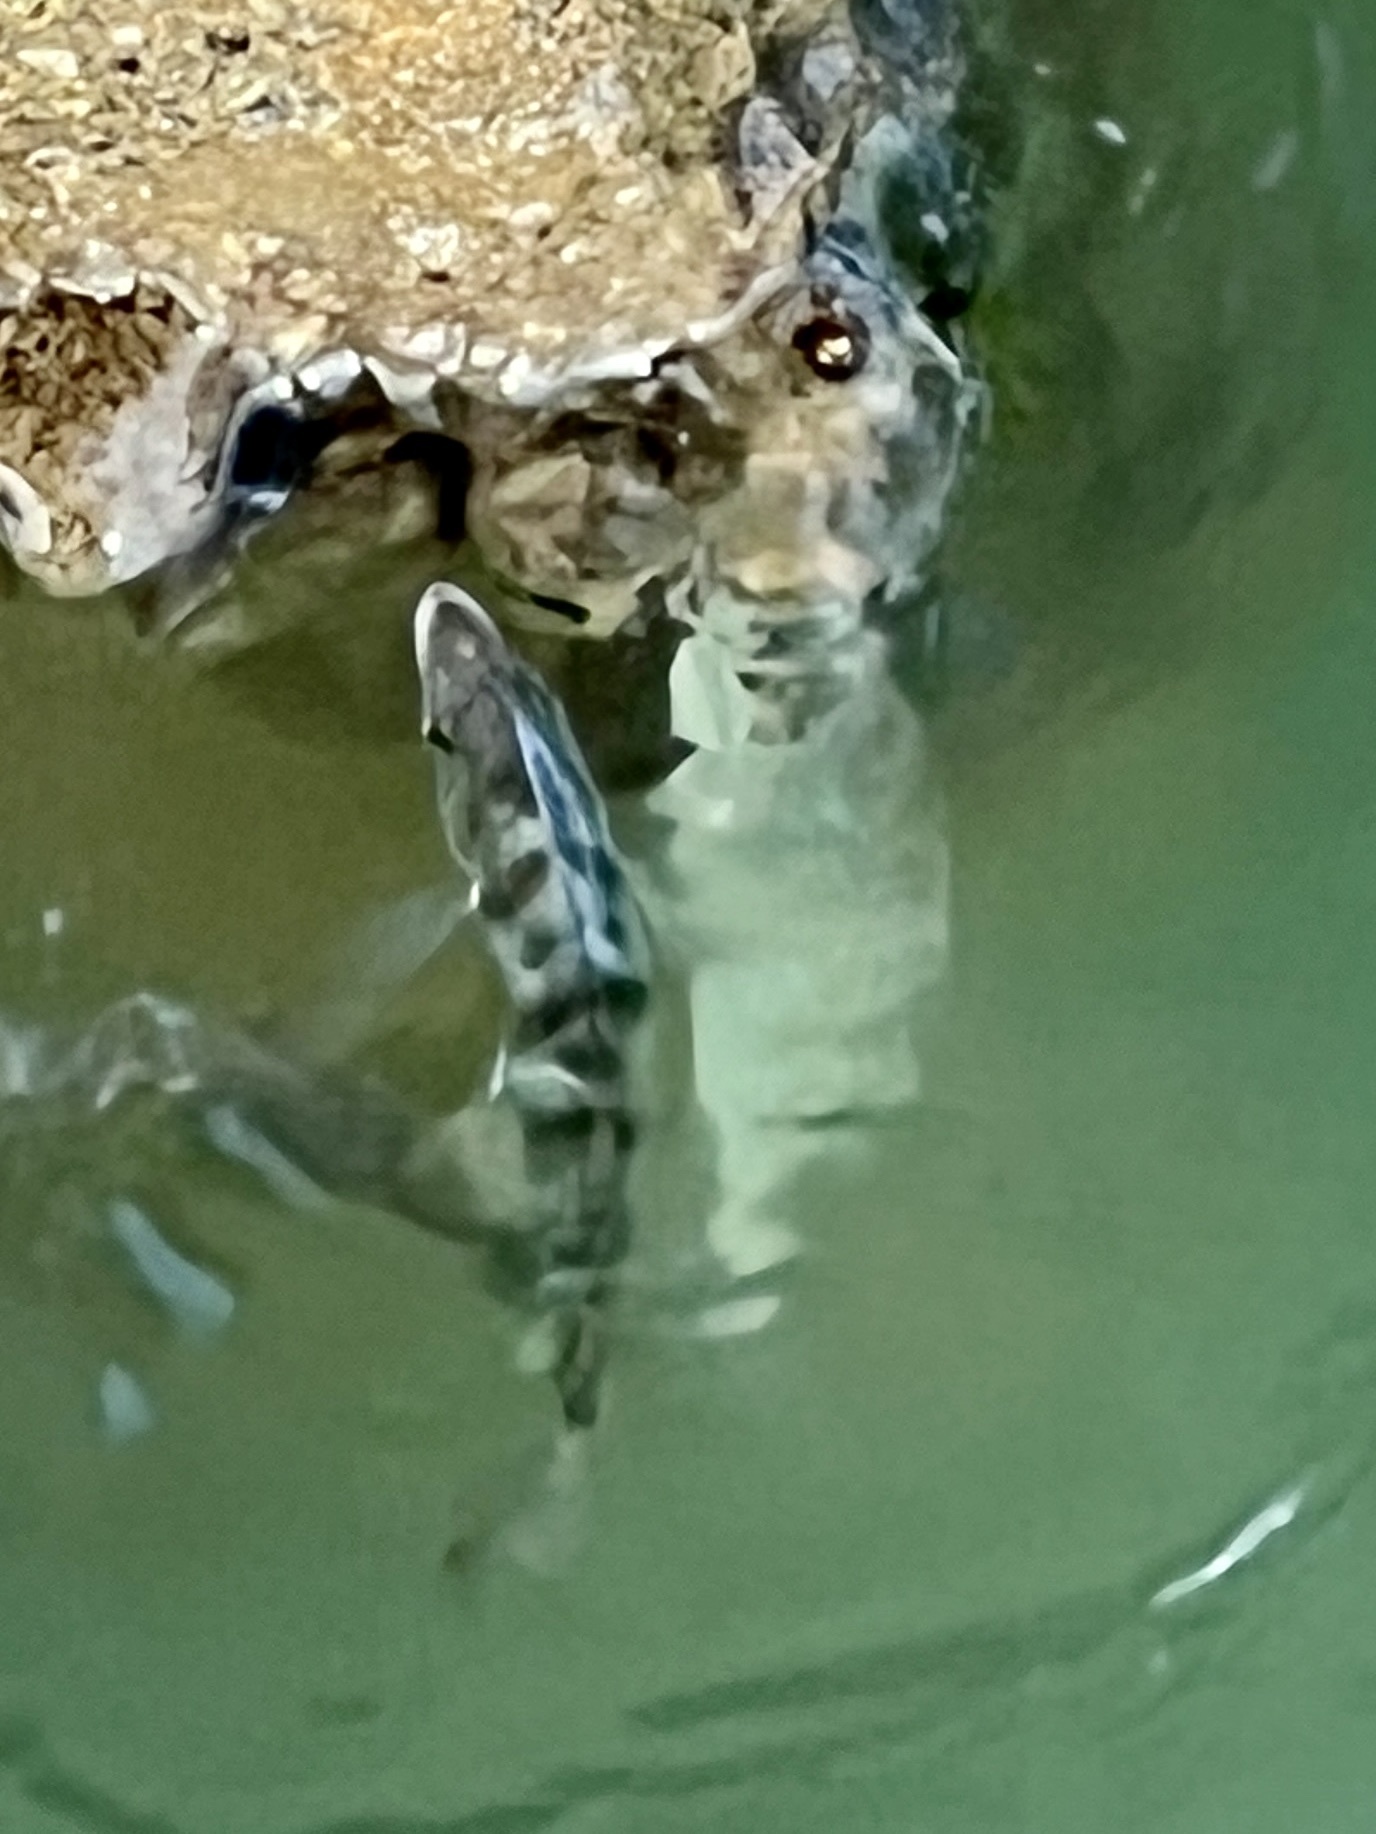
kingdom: Animalia
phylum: Chordata
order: Perciformes
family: Sparidae
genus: Archosargus
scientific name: Archosargus probatocephalus
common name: Sheepshead
